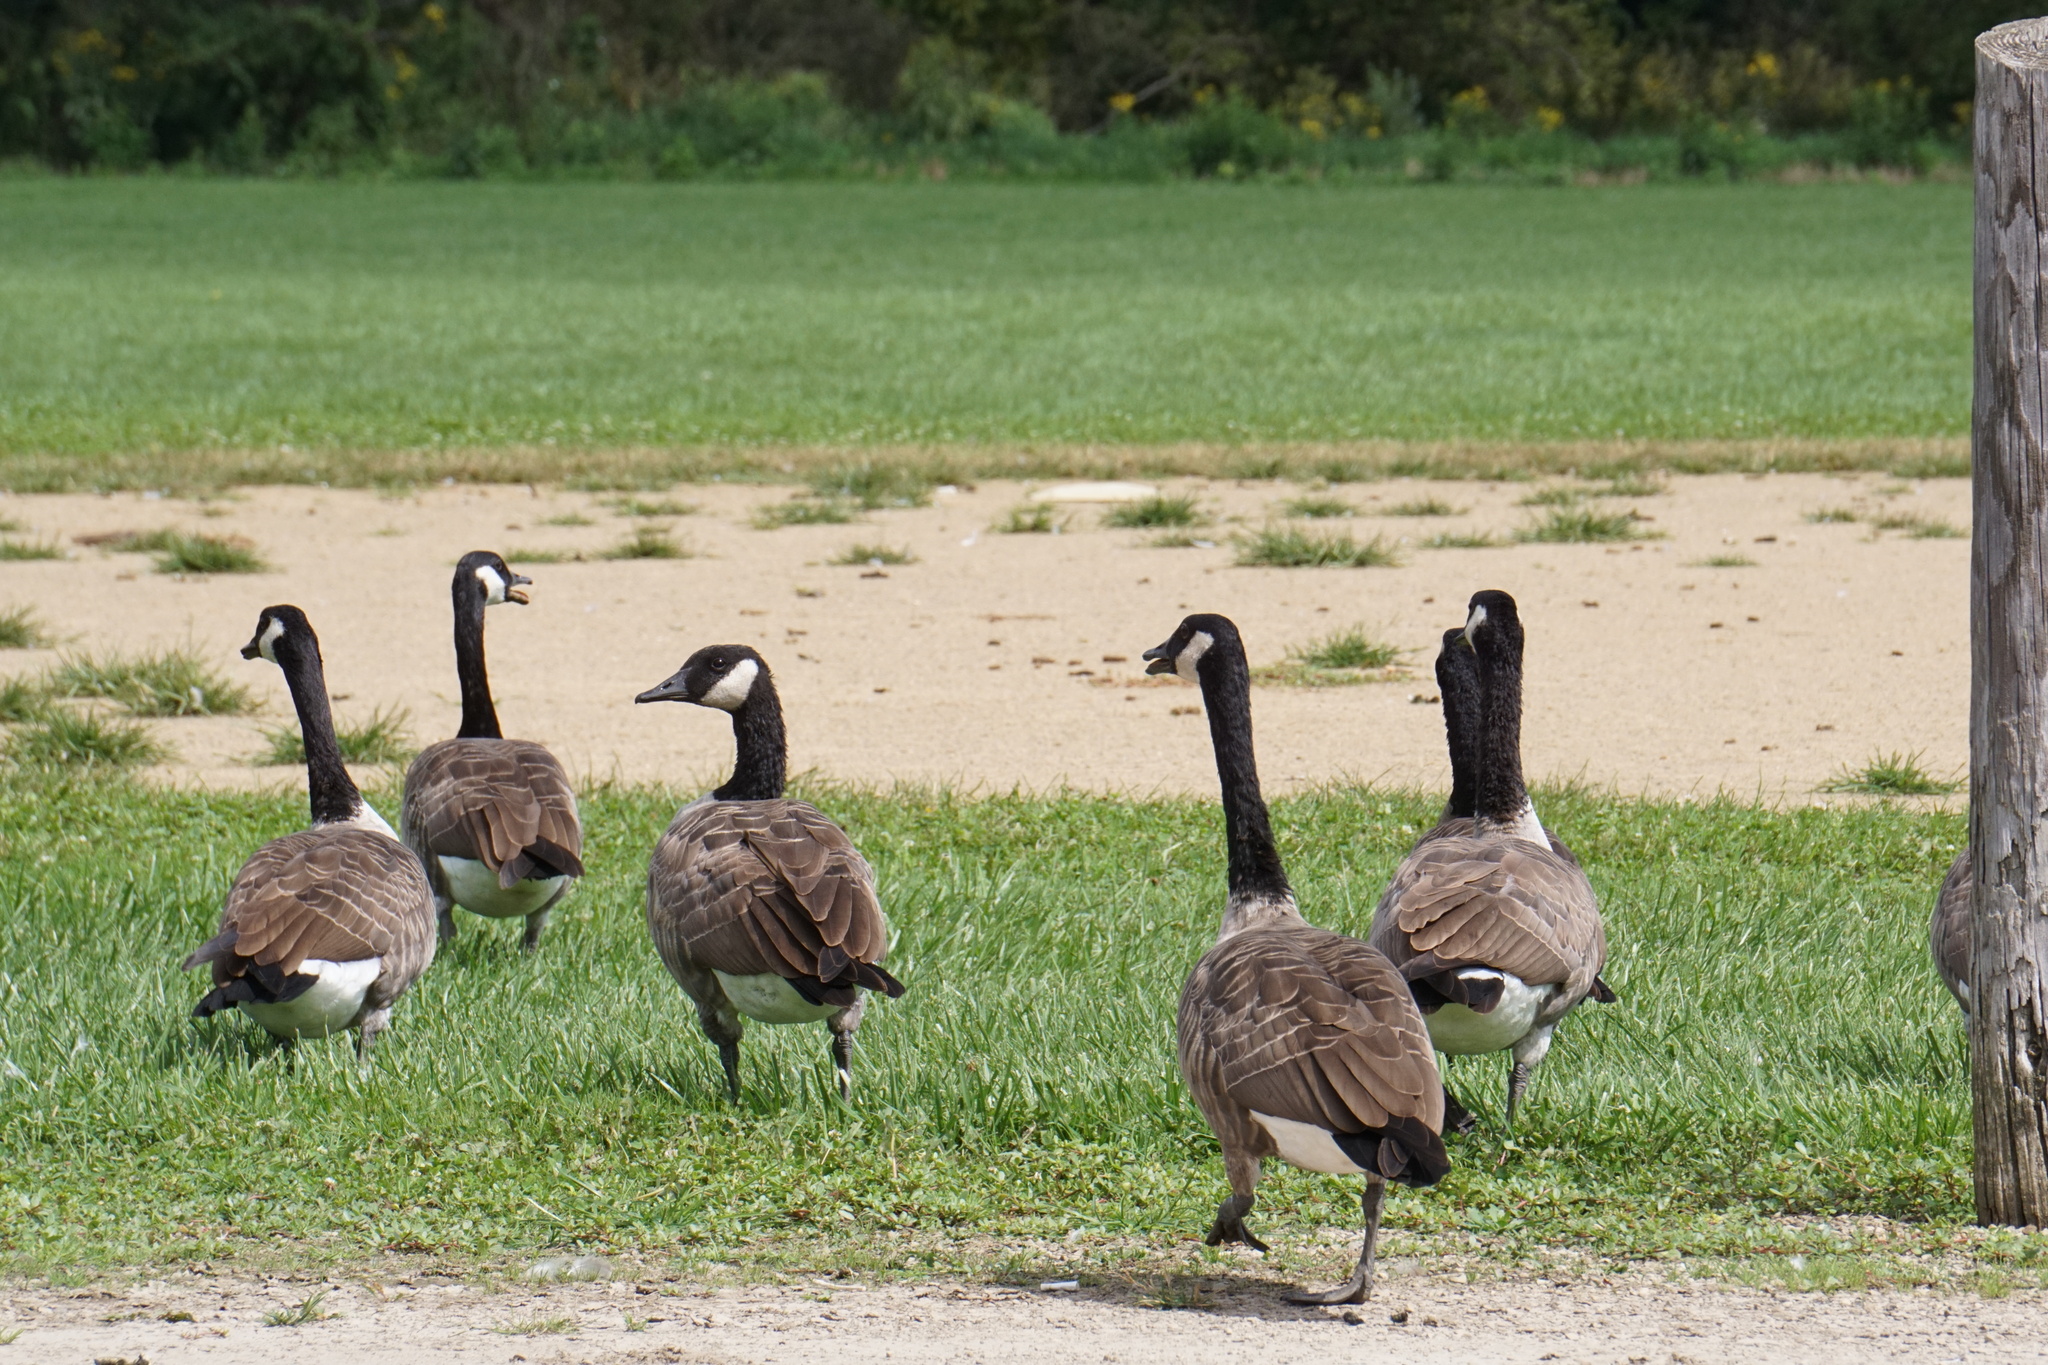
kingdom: Animalia
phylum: Chordata
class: Aves
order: Anseriformes
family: Anatidae
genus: Branta
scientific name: Branta canadensis
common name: Canada goose
